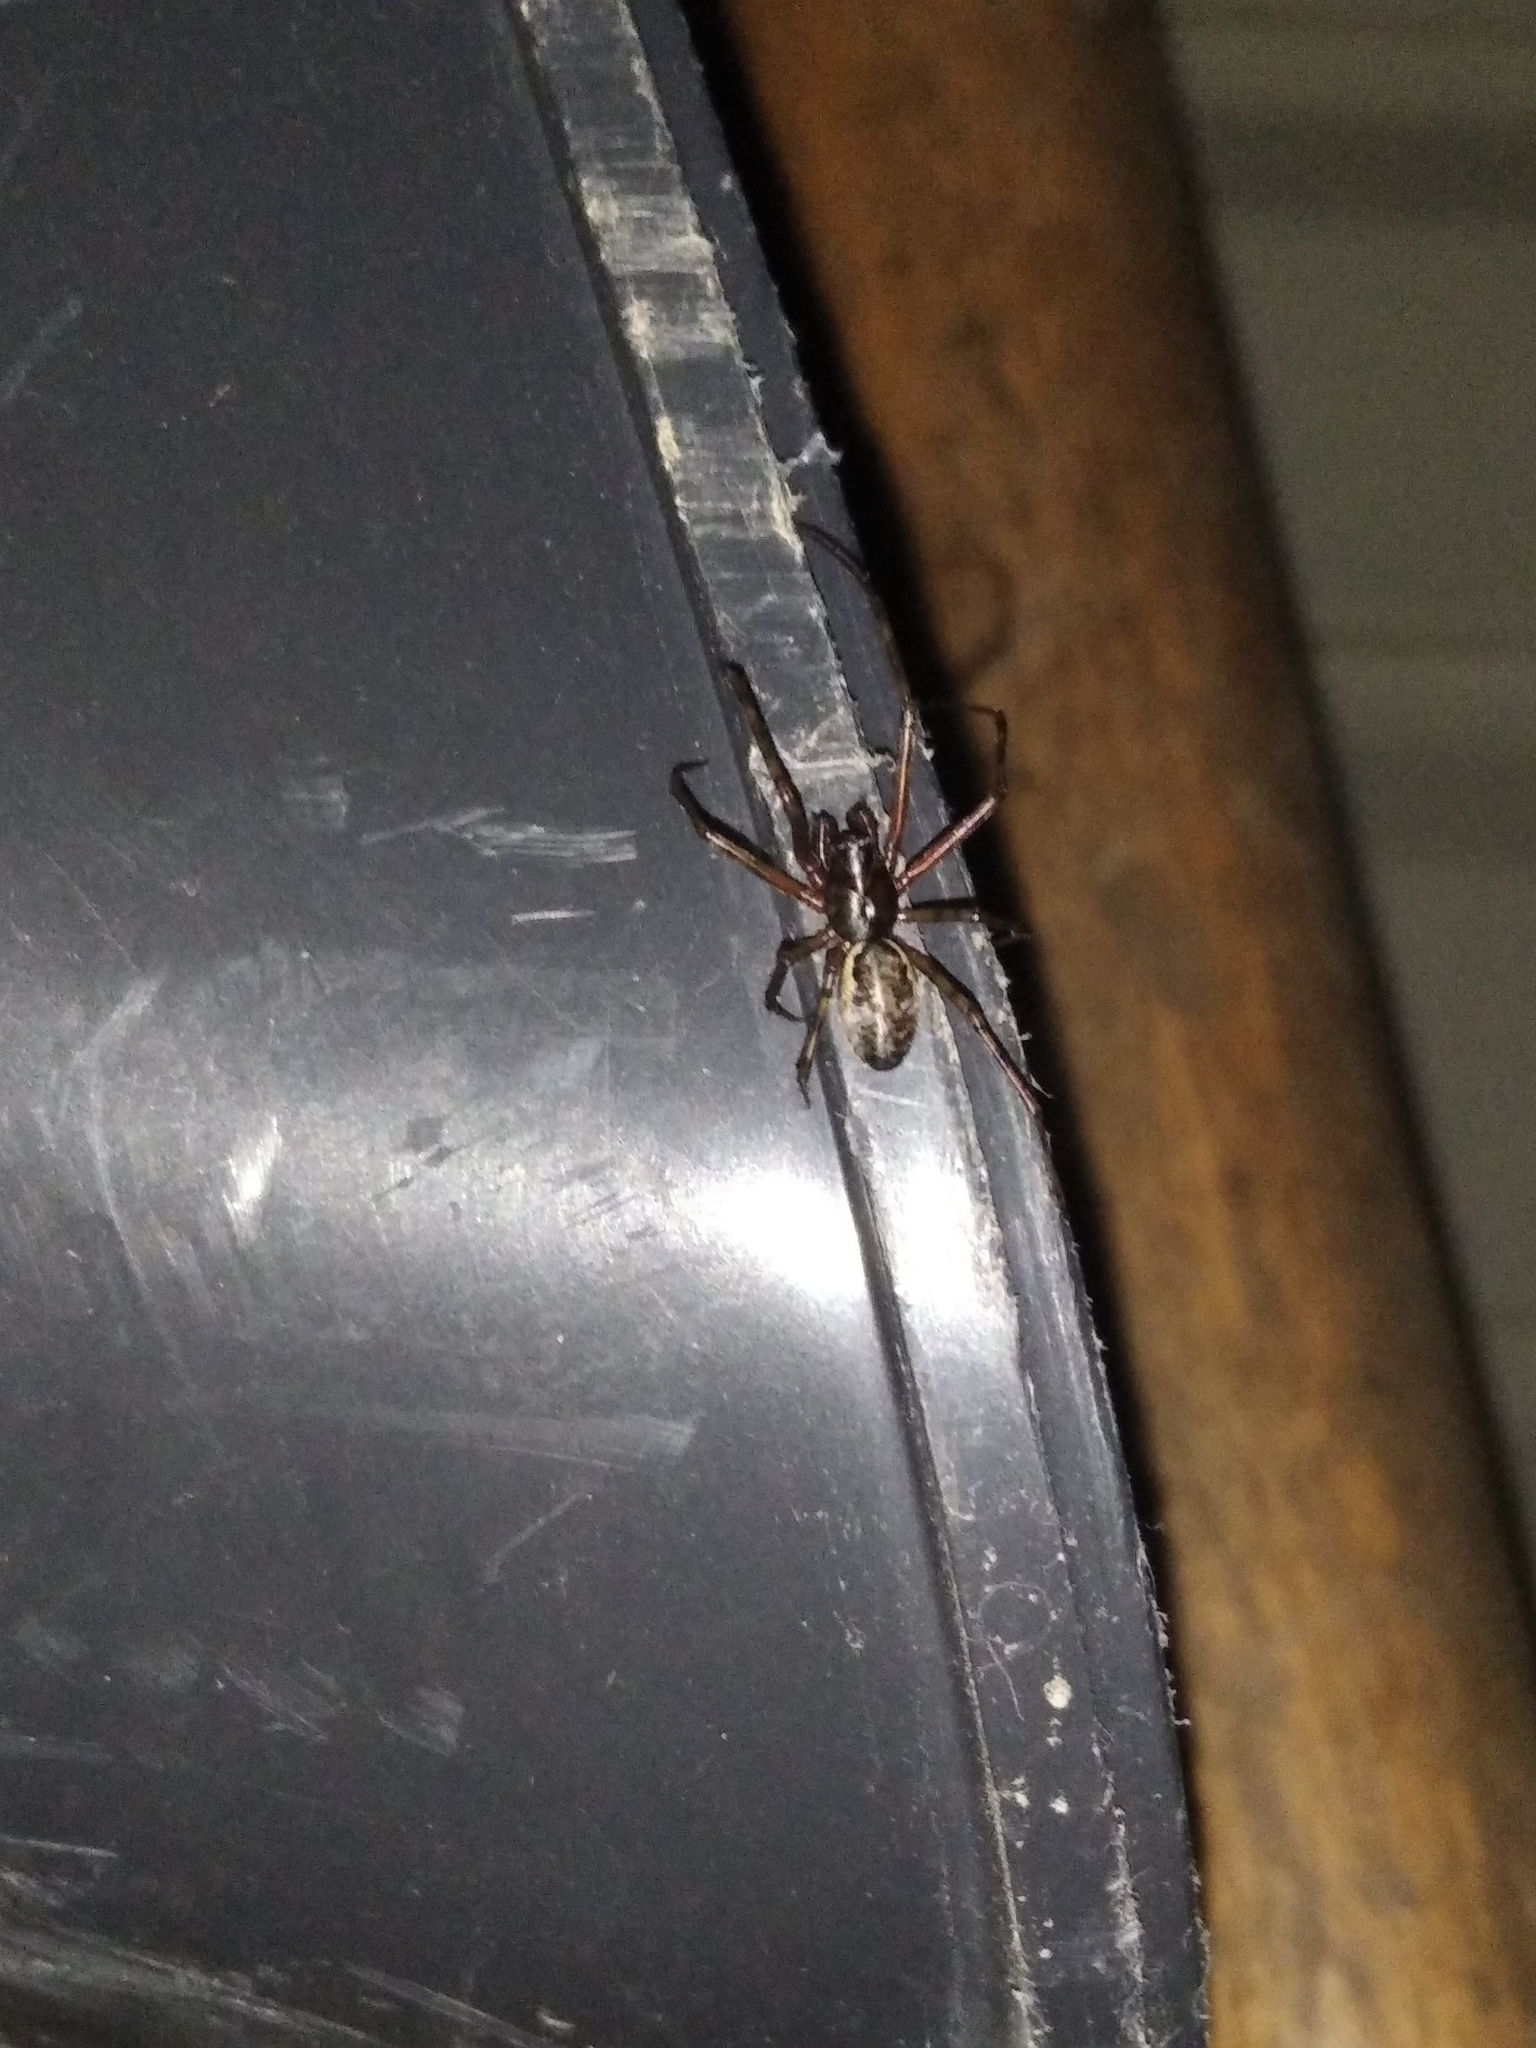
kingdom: Animalia
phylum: Arthropoda
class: Arachnida
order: Araneae
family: Linyphiidae
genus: Neriene
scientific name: Neriene montana
